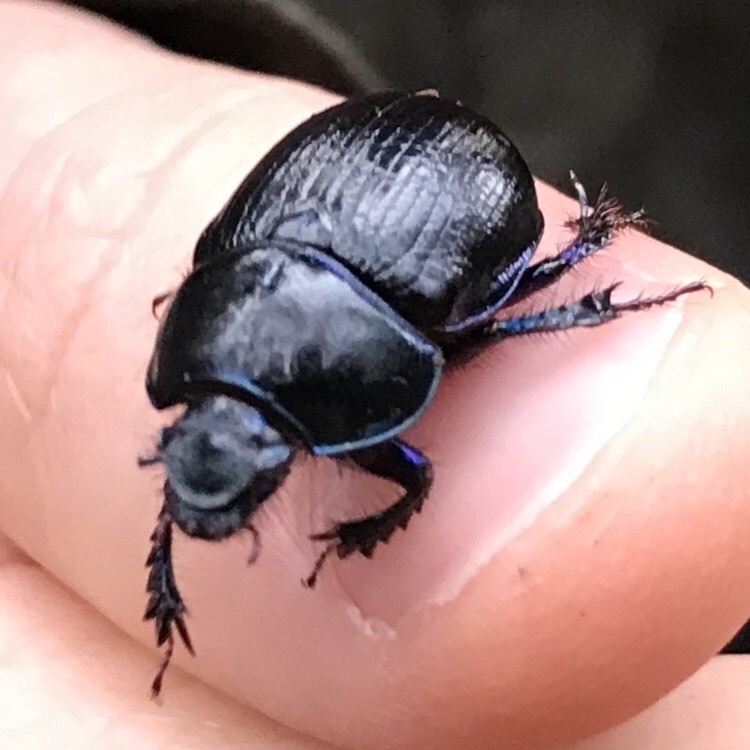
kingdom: Animalia
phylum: Arthropoda
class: Insecta
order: Coleoptera
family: Geotrupidae
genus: Anoplotrupes
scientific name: Anoplotrupes stercorosus
